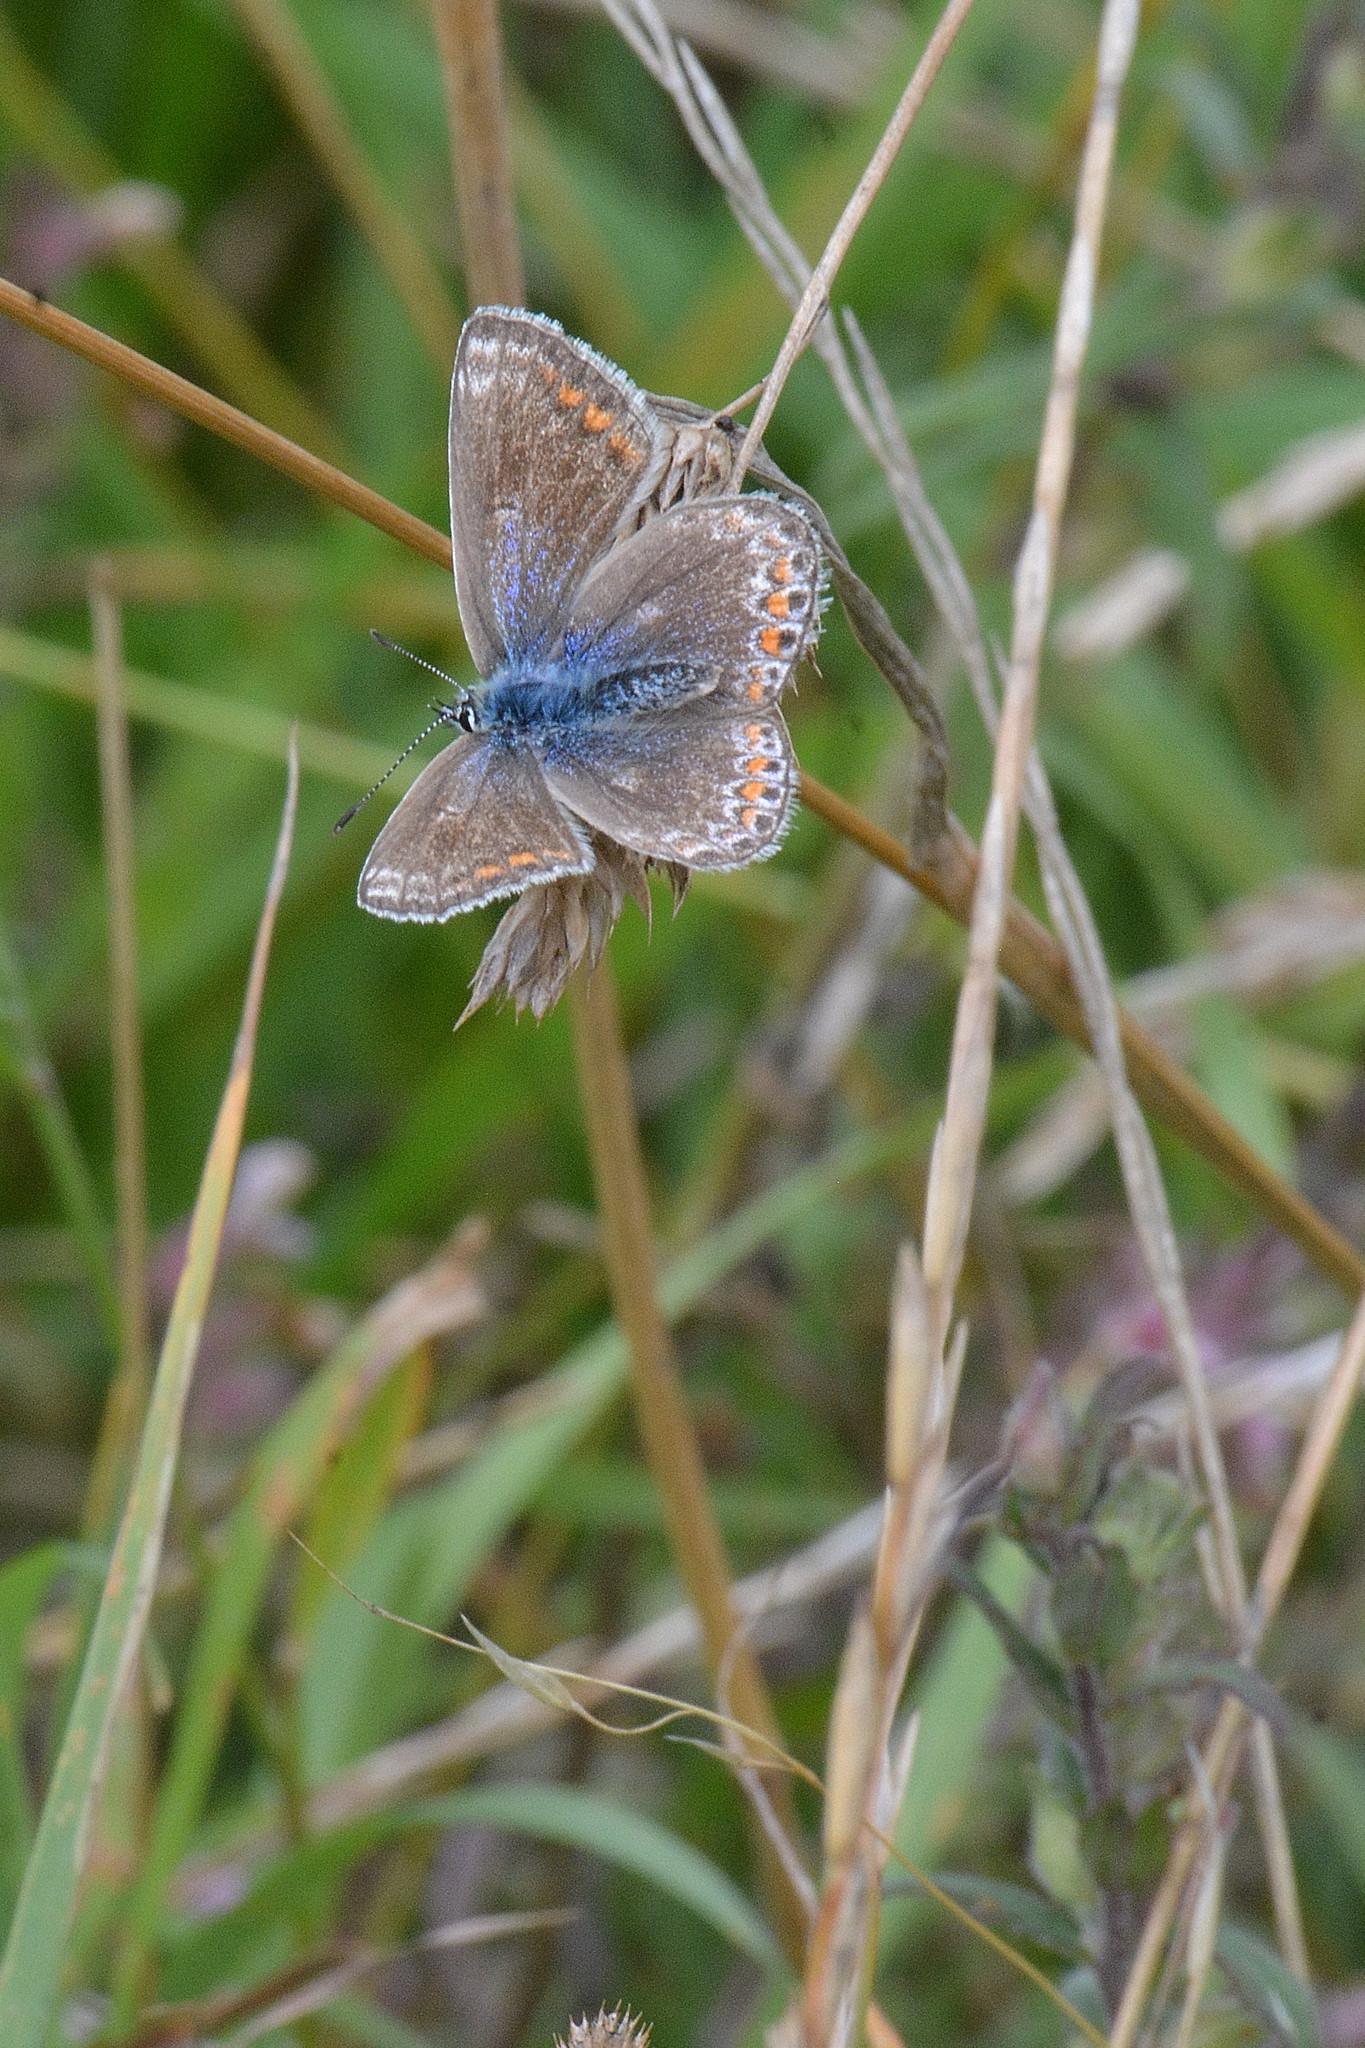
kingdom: Animalia
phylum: Arthropoda
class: Insecta
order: Lepidoptera
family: Lycaenidae
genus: Polyommatus
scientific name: Polyommatus icarus
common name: Common blue
